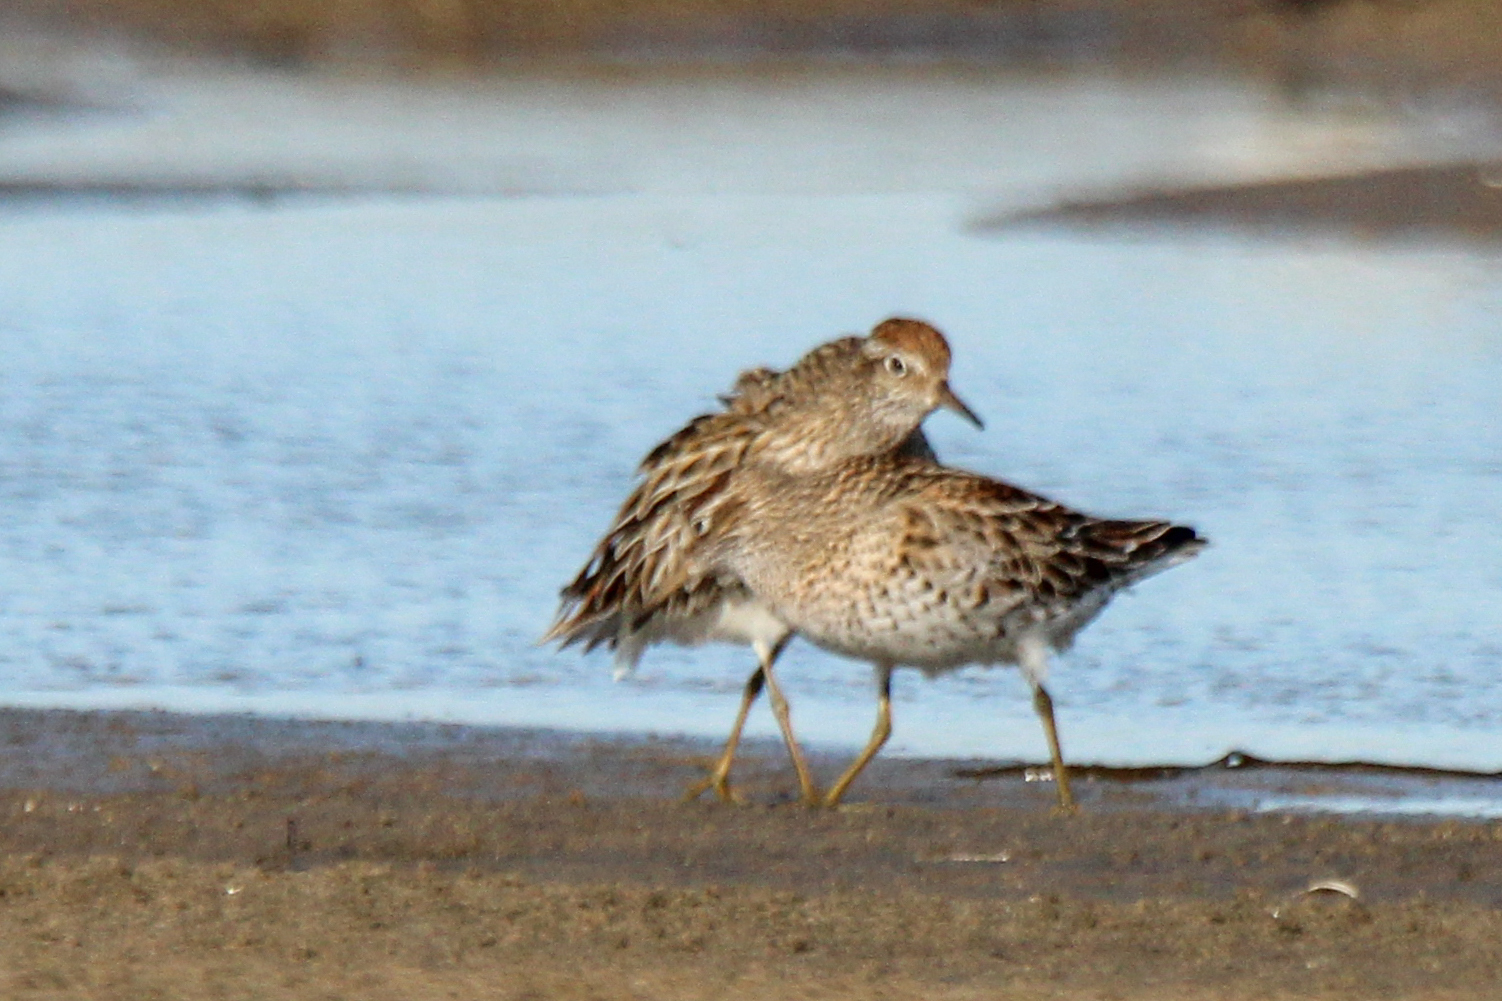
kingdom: Animalia
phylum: Chordata
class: Aves
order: Charadriiformes
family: Scolopacidae
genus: Calidris
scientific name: Calidris acuminata
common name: Sharp-tailed sandpiper
